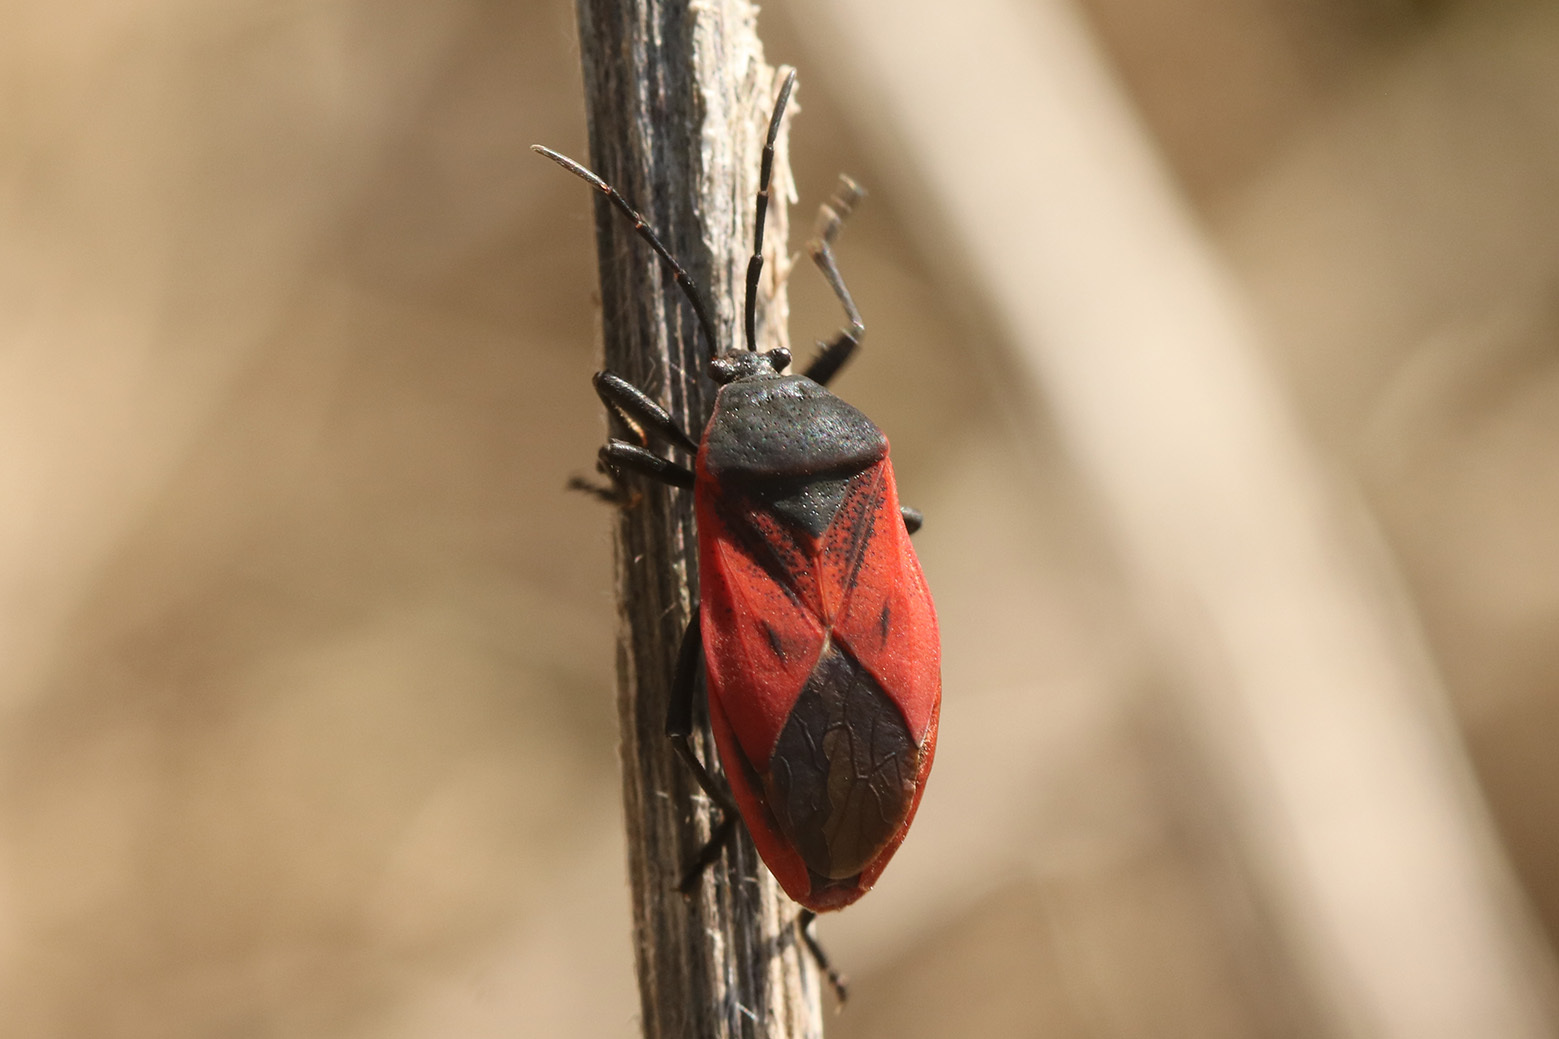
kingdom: Animalia
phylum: Arthropoda
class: Insecta
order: Hemiptera
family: Largidae
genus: Largus
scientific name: Largus rufipennis
